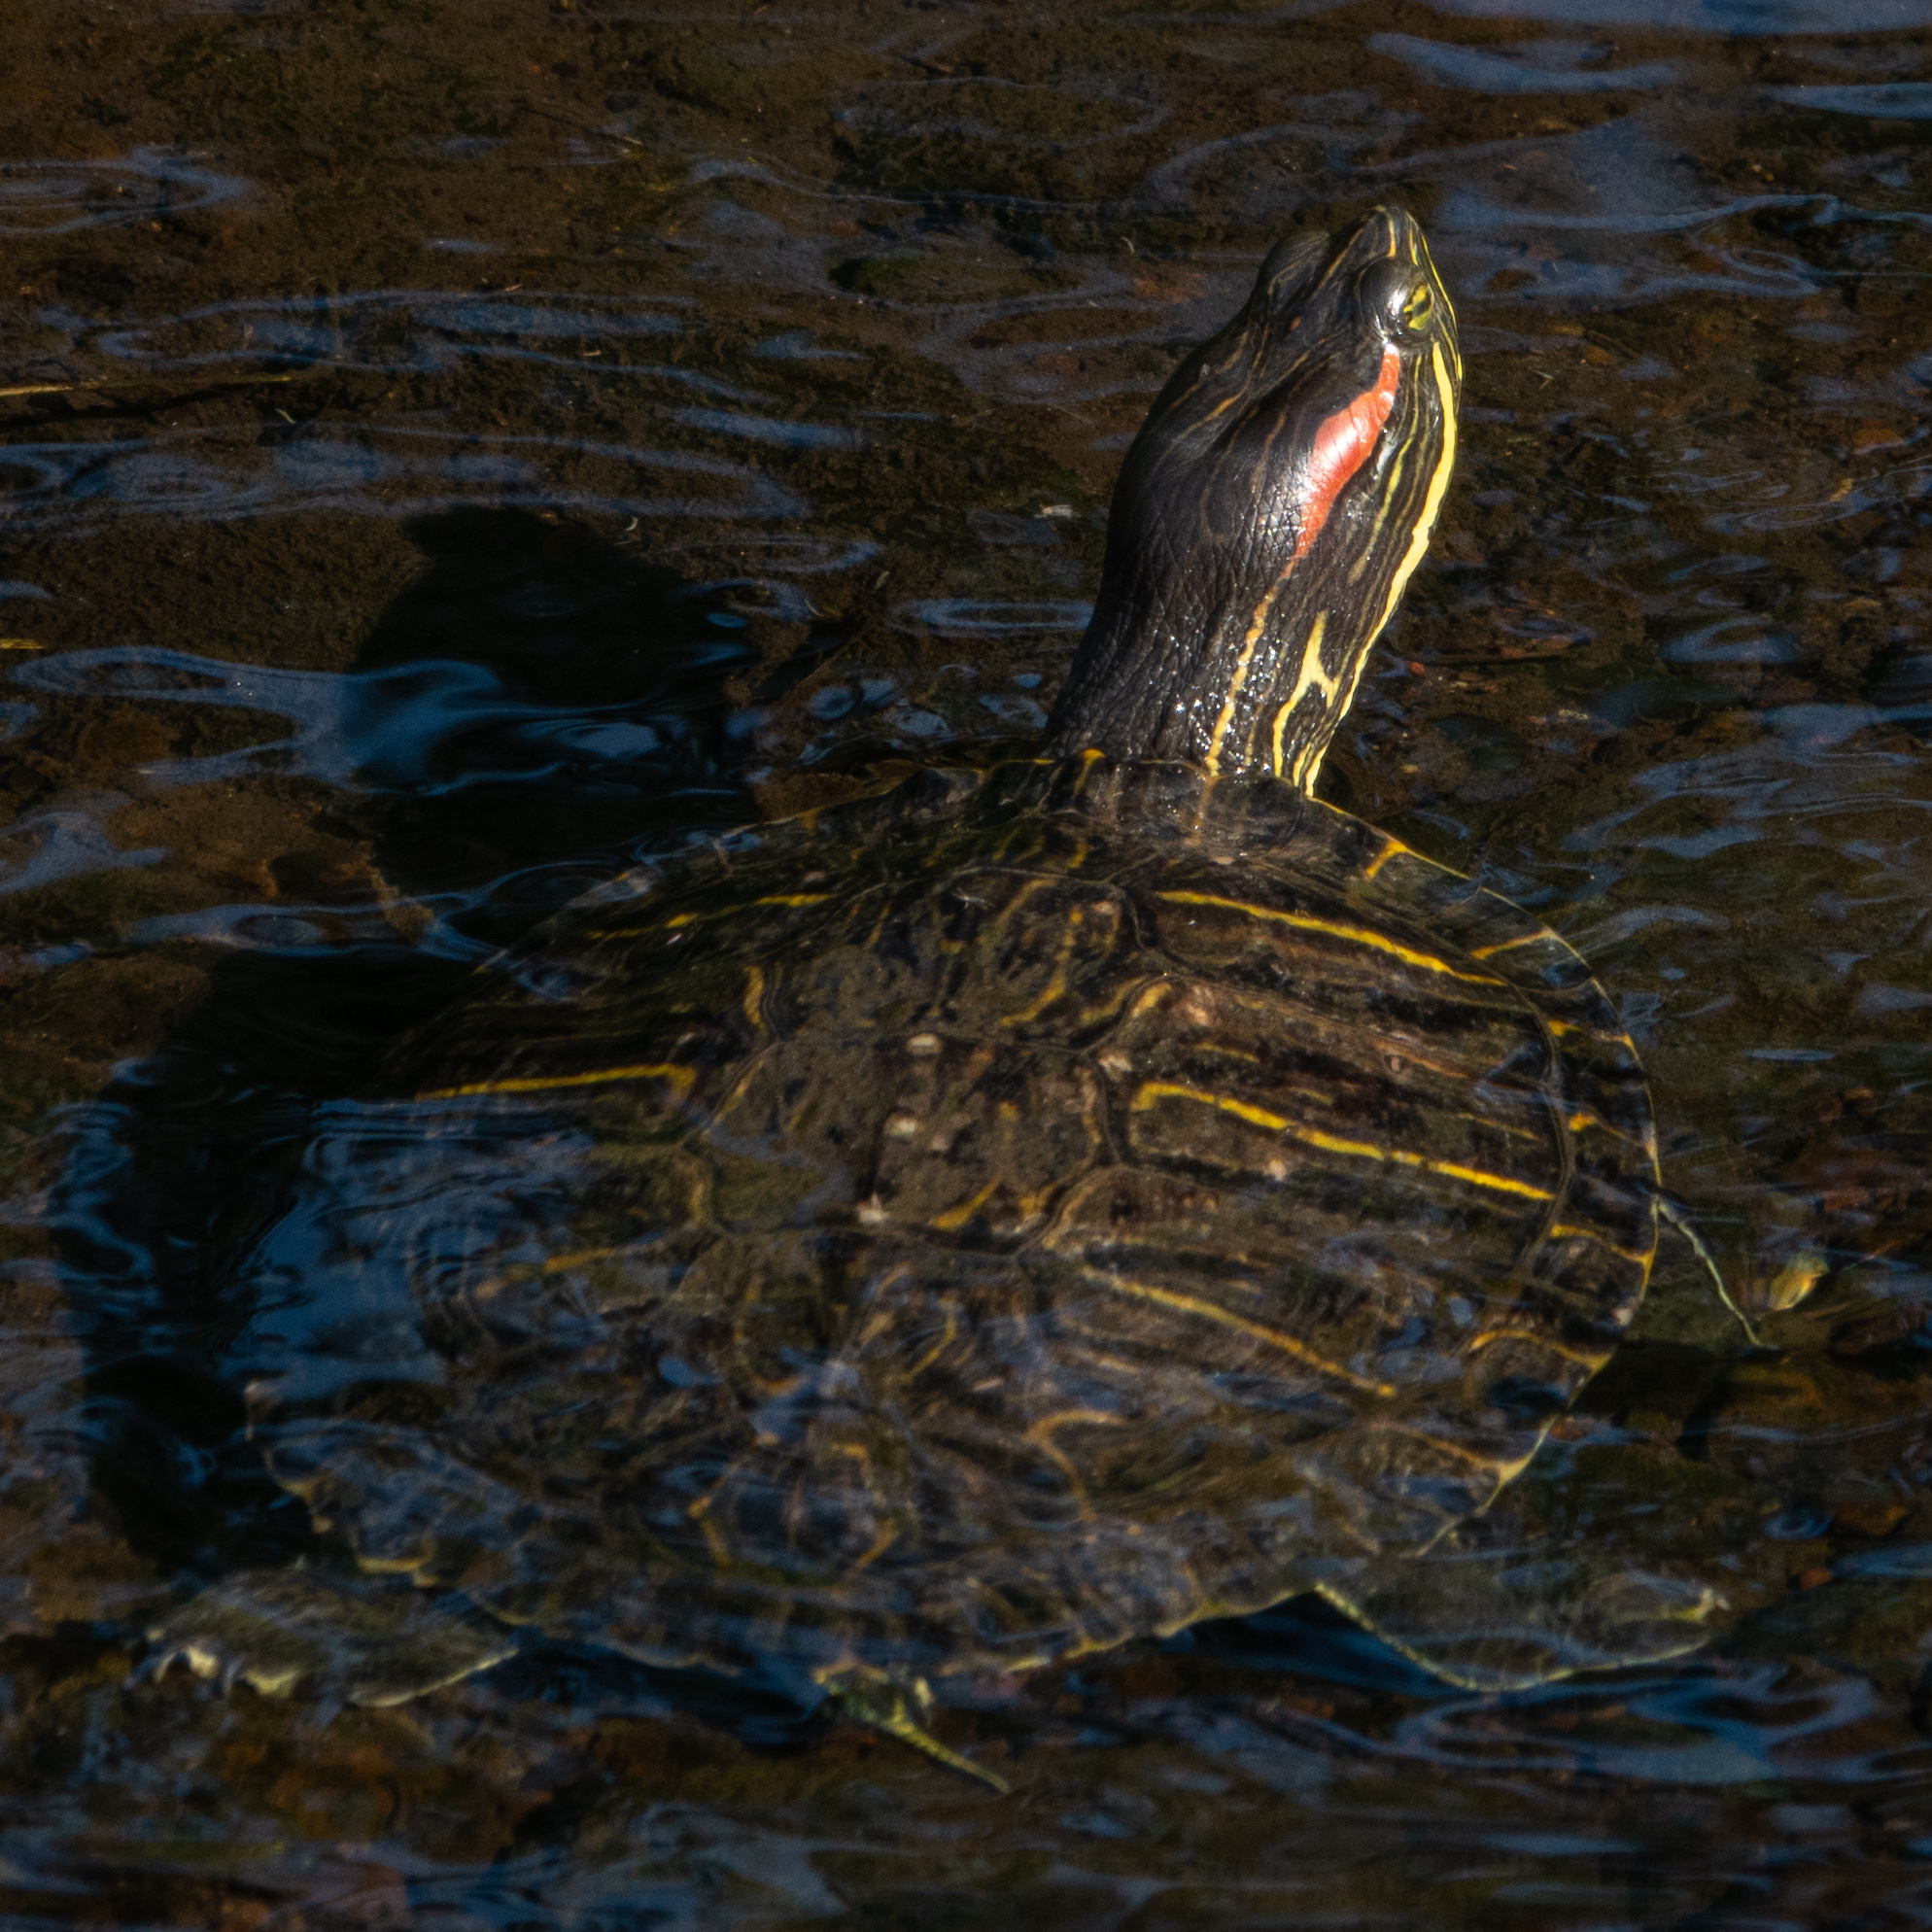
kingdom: Animalia
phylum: Chordata
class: Testudines
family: Emydidae
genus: Trachemys
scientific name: Trachemys scripta
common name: Slider
